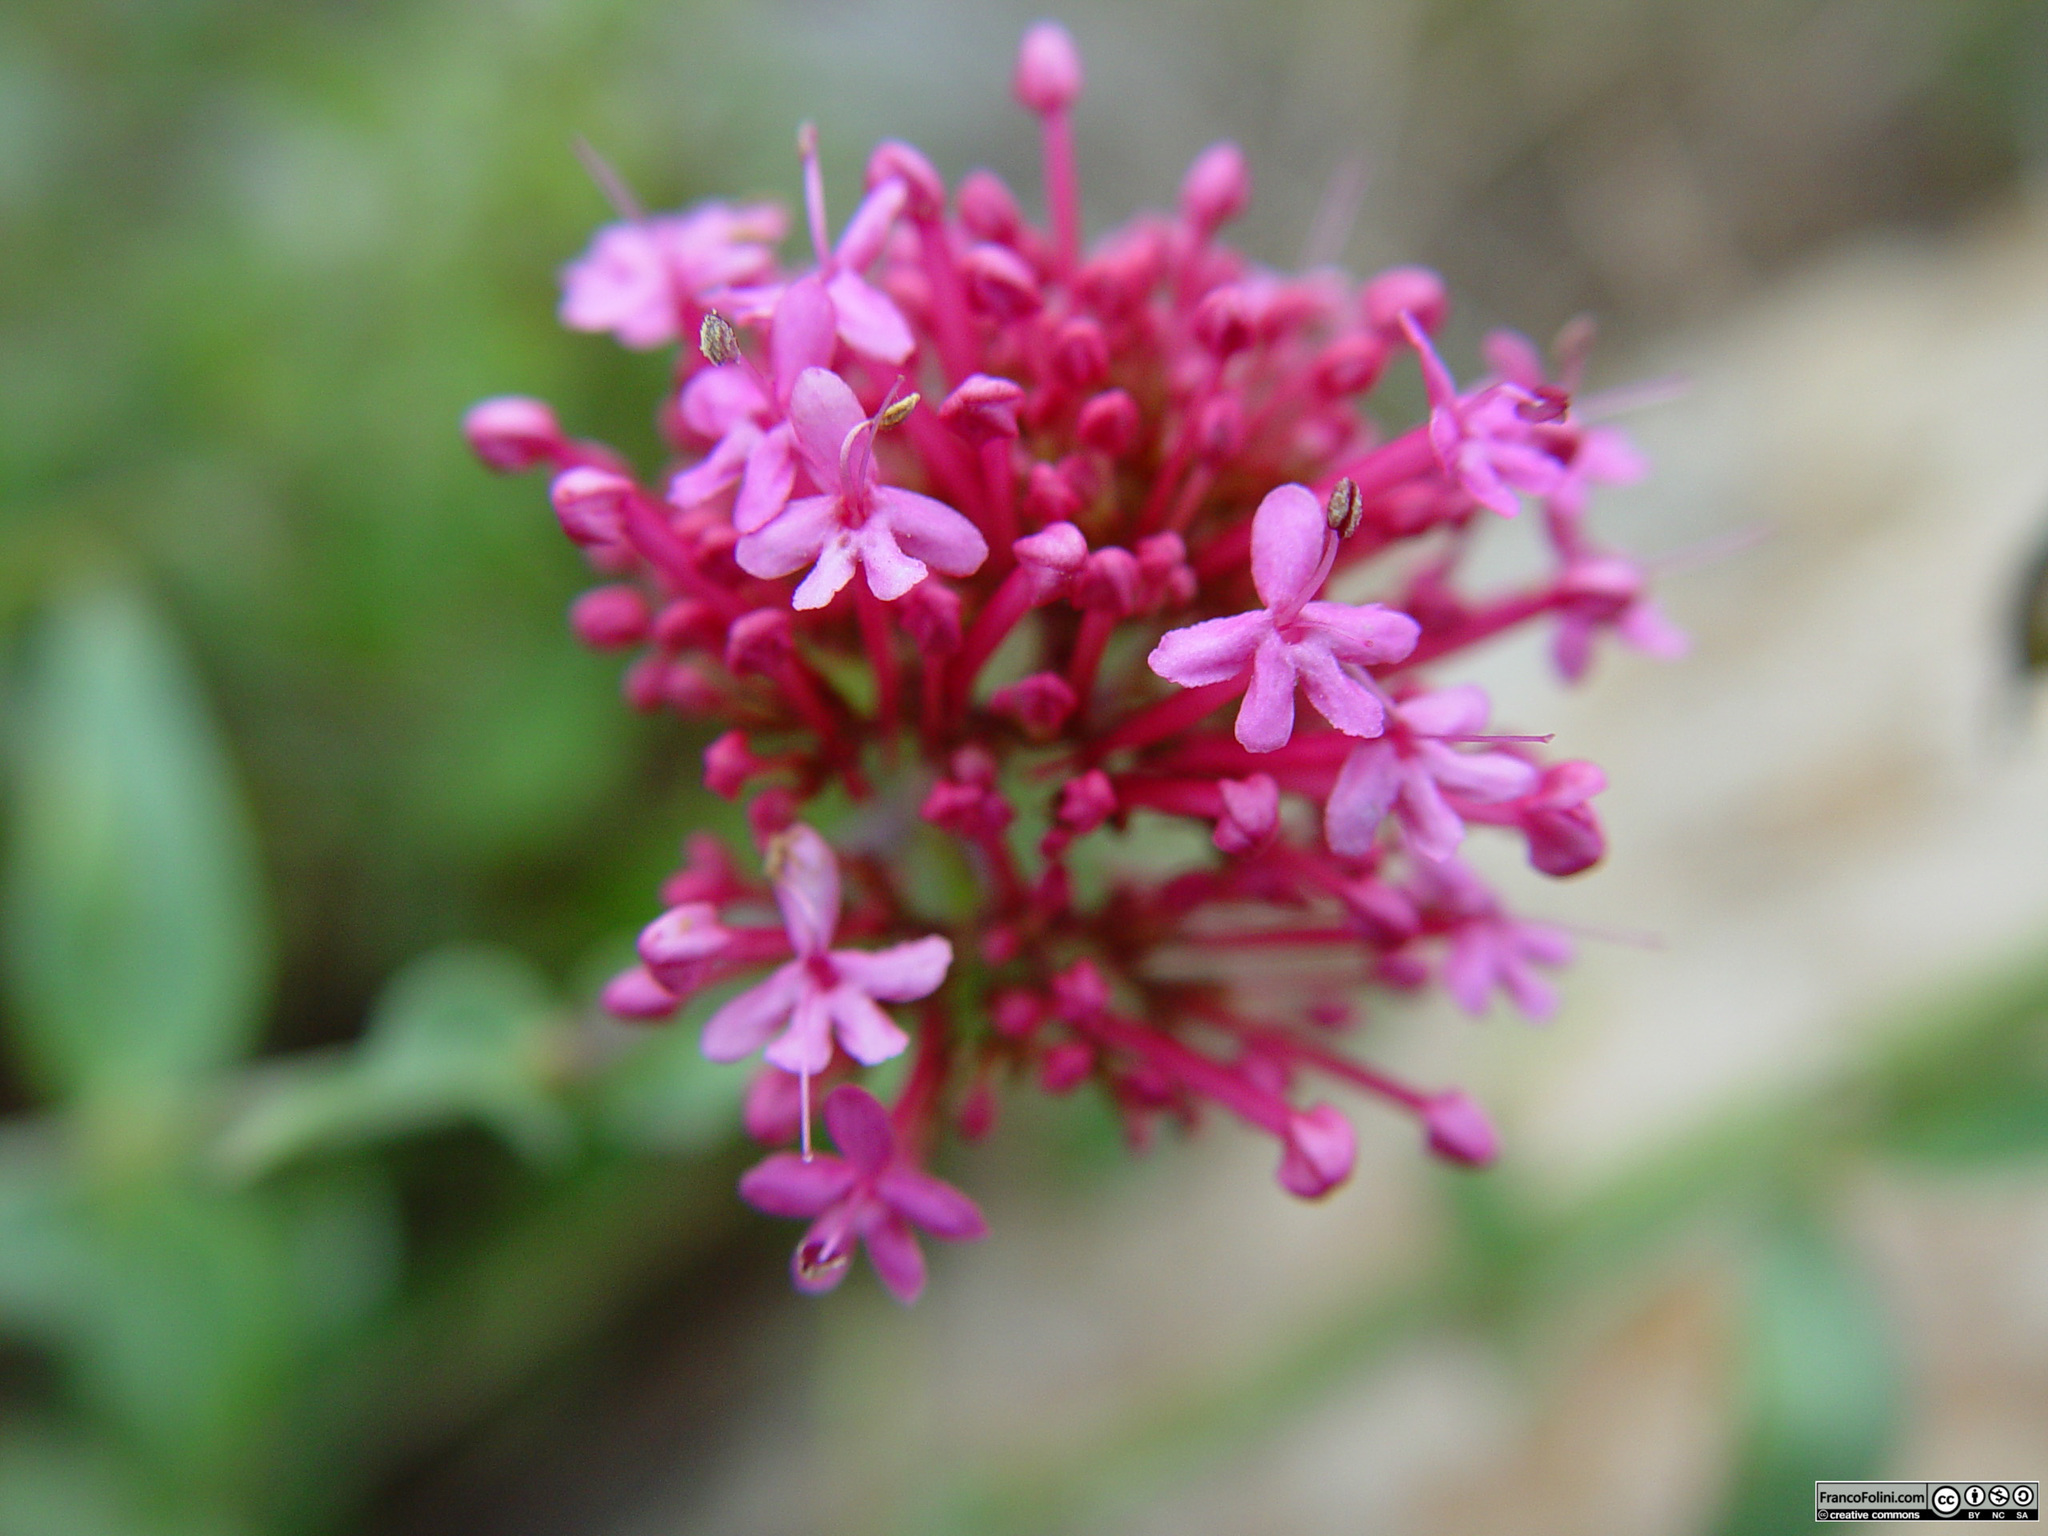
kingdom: Plantae
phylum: Tracheophyta
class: Magnoliopsida
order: Dipsacales
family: Caprifoliaceae
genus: Centranthus
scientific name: Centranthus ruber
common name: Red valerian
